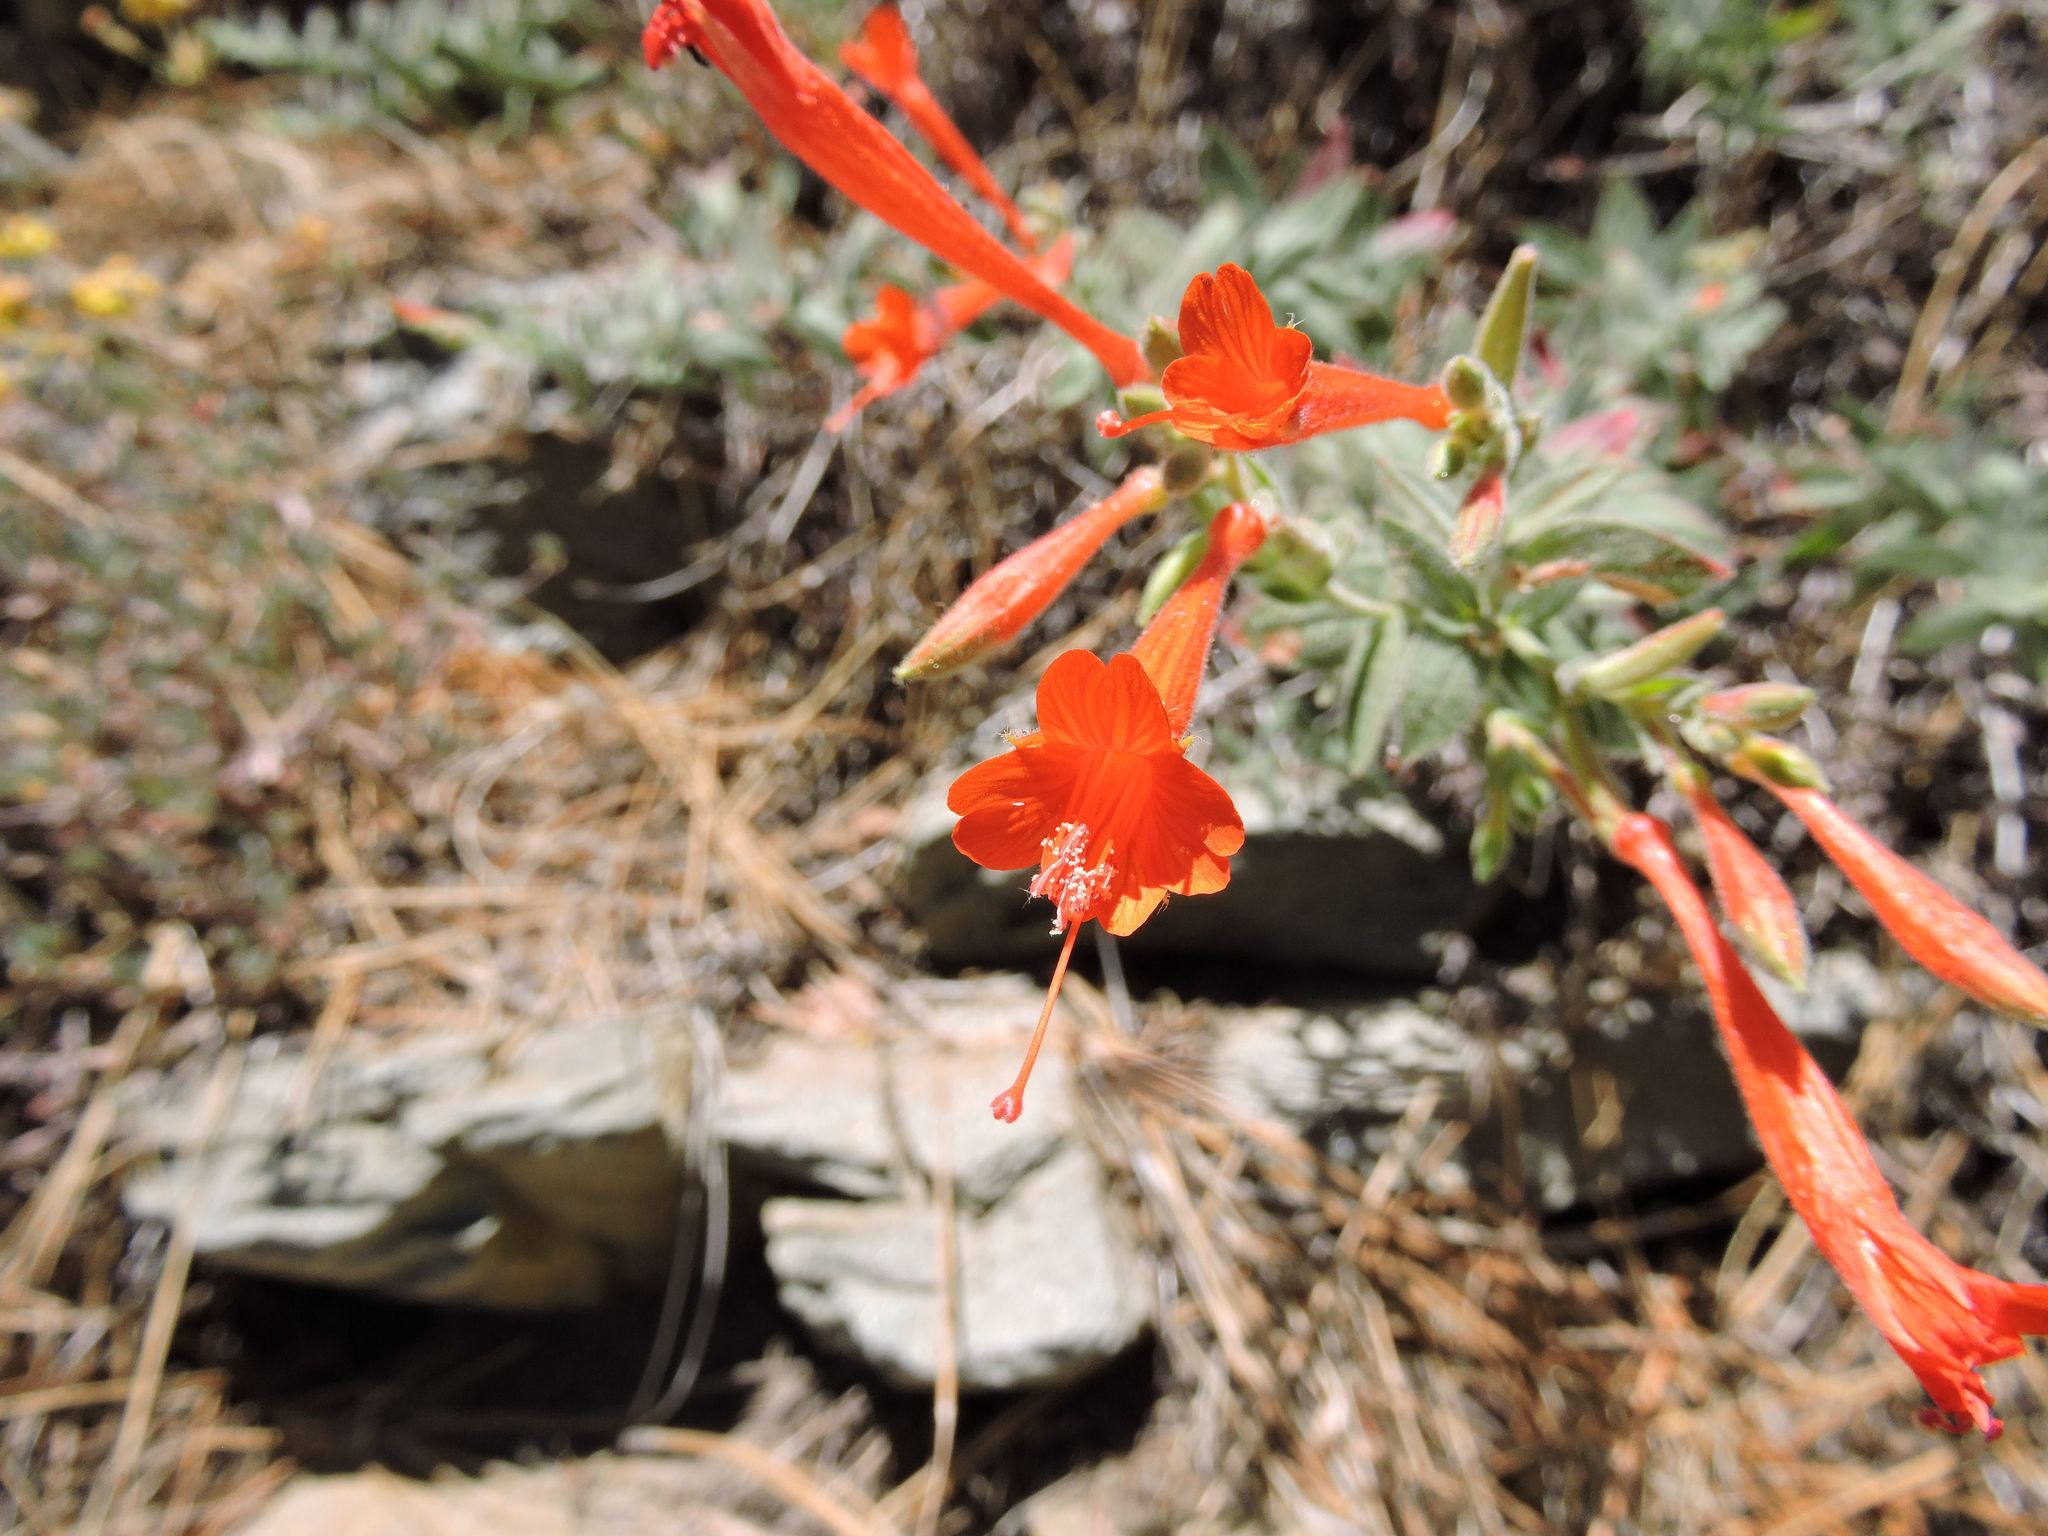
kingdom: Plantae
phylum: Tracheophyta
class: Magnoliopsida
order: Myrtales
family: Onagraceae
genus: Epilobium
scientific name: Epilobium canum
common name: California-fuchsia
